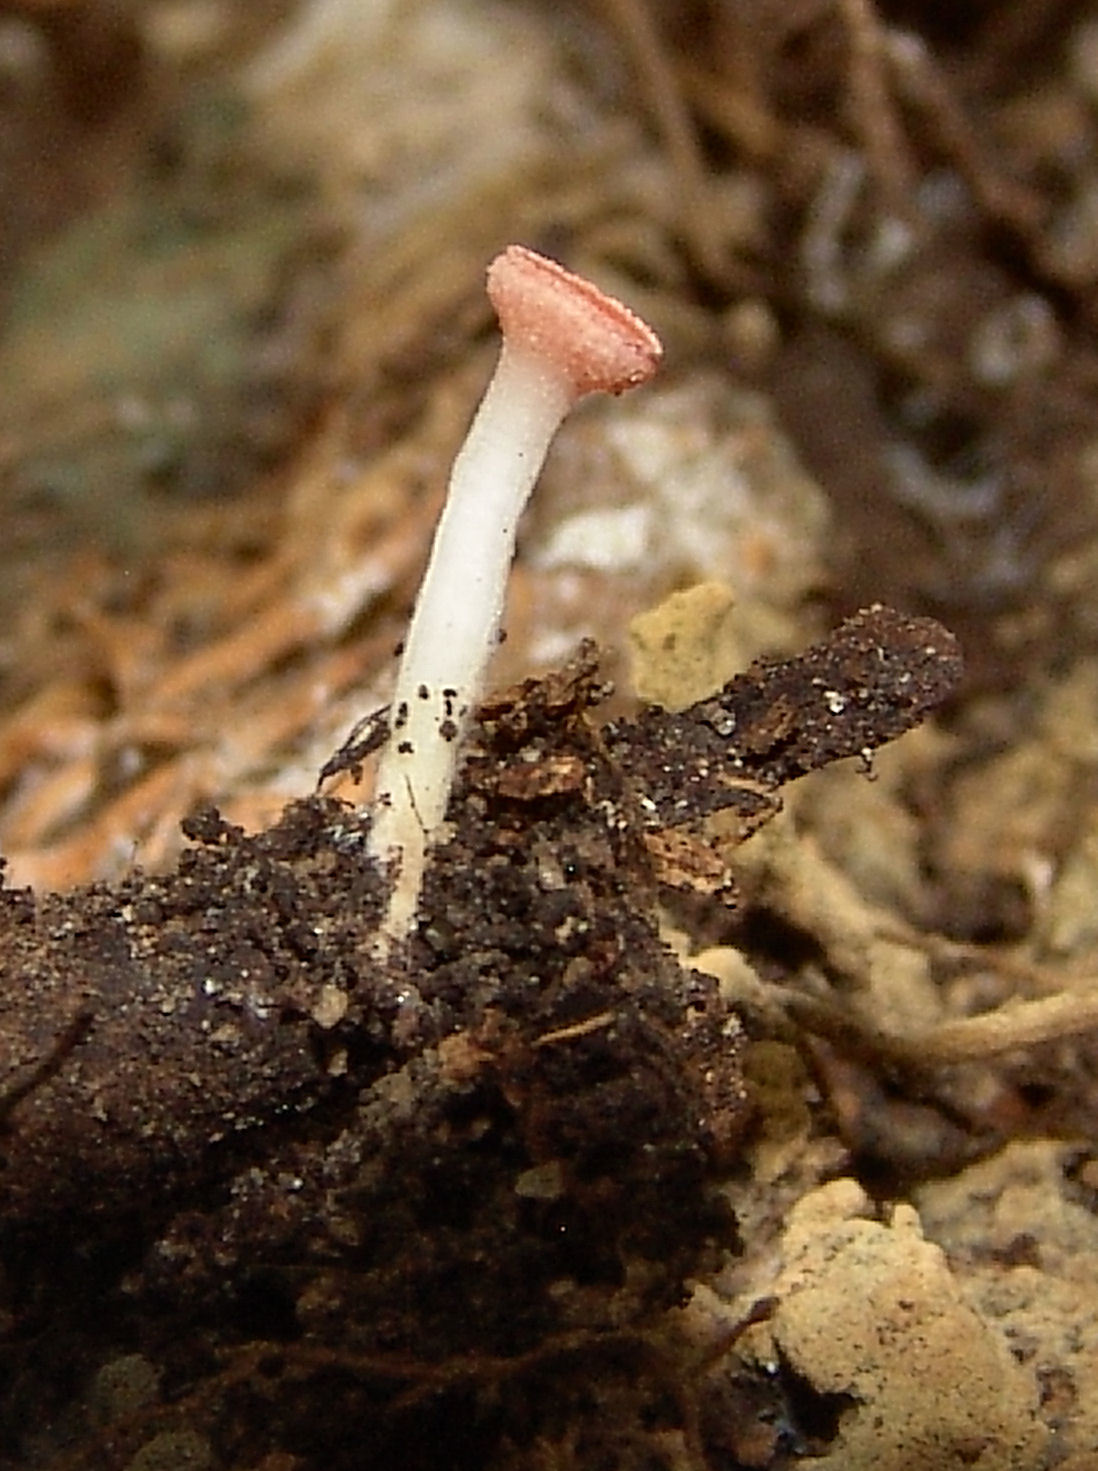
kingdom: Fungi
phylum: Ascomycota
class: Pezizomycetes
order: Pezizales
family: Sarcoscyphaceae
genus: Sarcoscypha
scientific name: Sarcoscypha occidentalis
